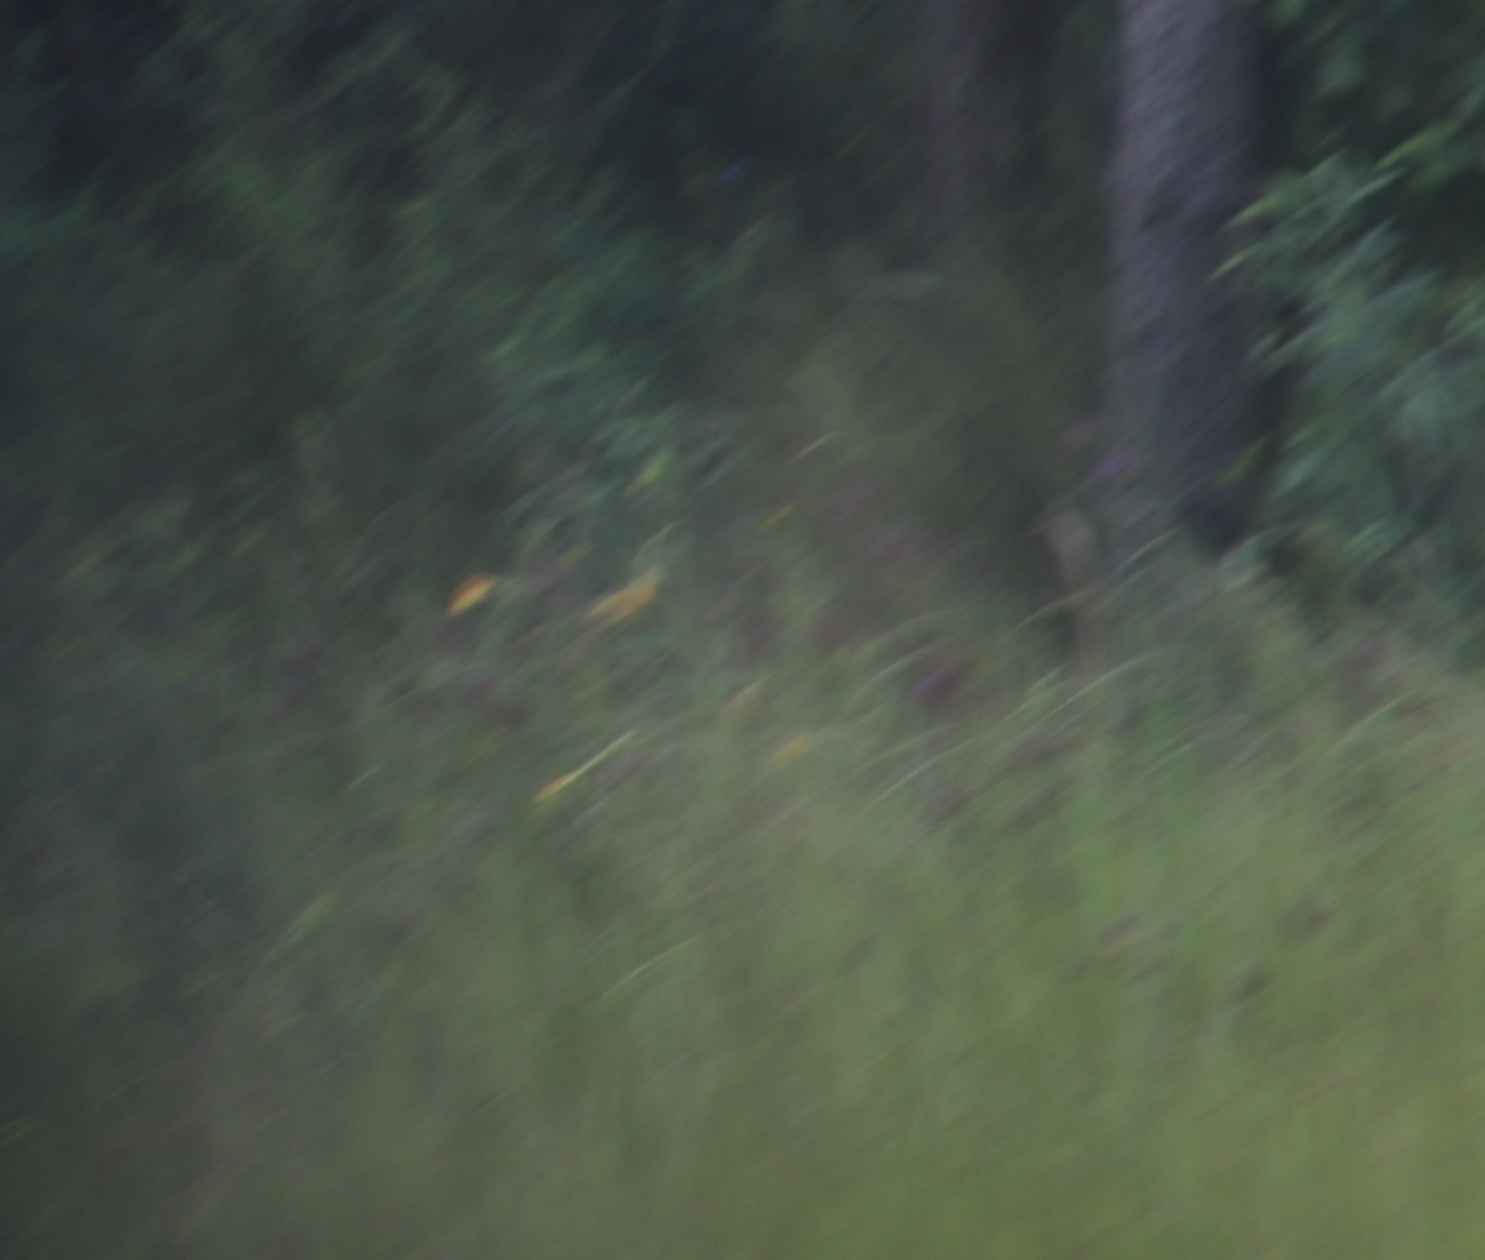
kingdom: Plantae
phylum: Tracheophyta
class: Liliopsida
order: Liliales
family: Liliaceae
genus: Lilium
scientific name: Lilium formosanum
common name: Formosa lily
